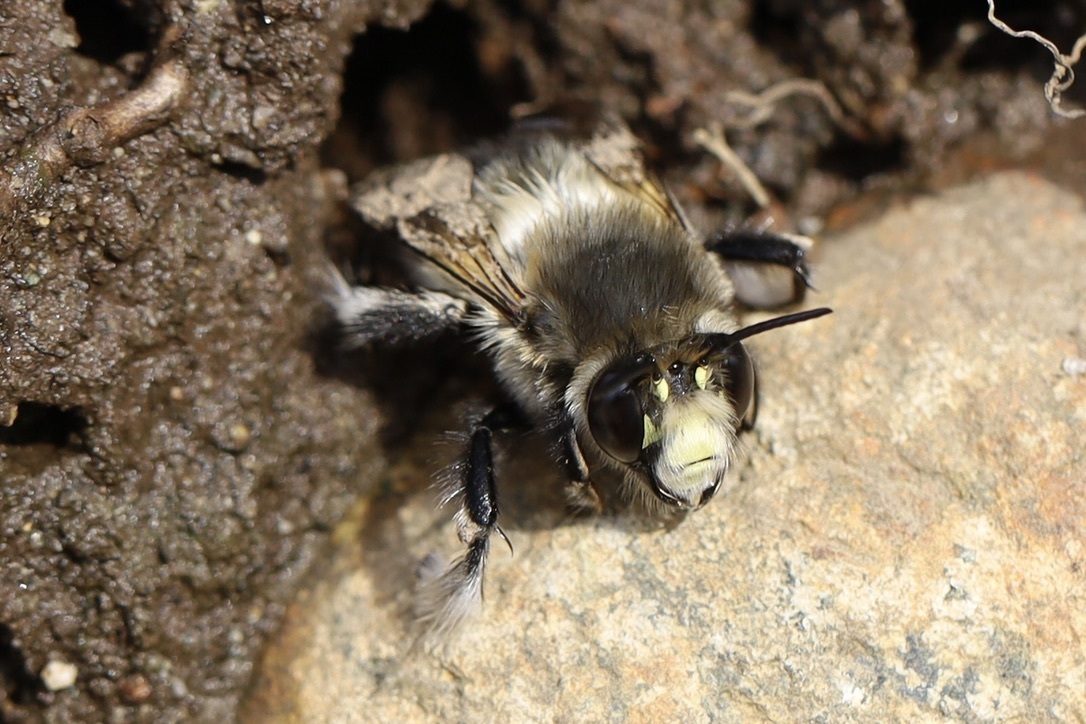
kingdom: Animalia
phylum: Arthropoda
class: Insecta
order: Hymenoptera
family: Apidae
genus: Anthophora
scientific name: Anthophora pacifica
